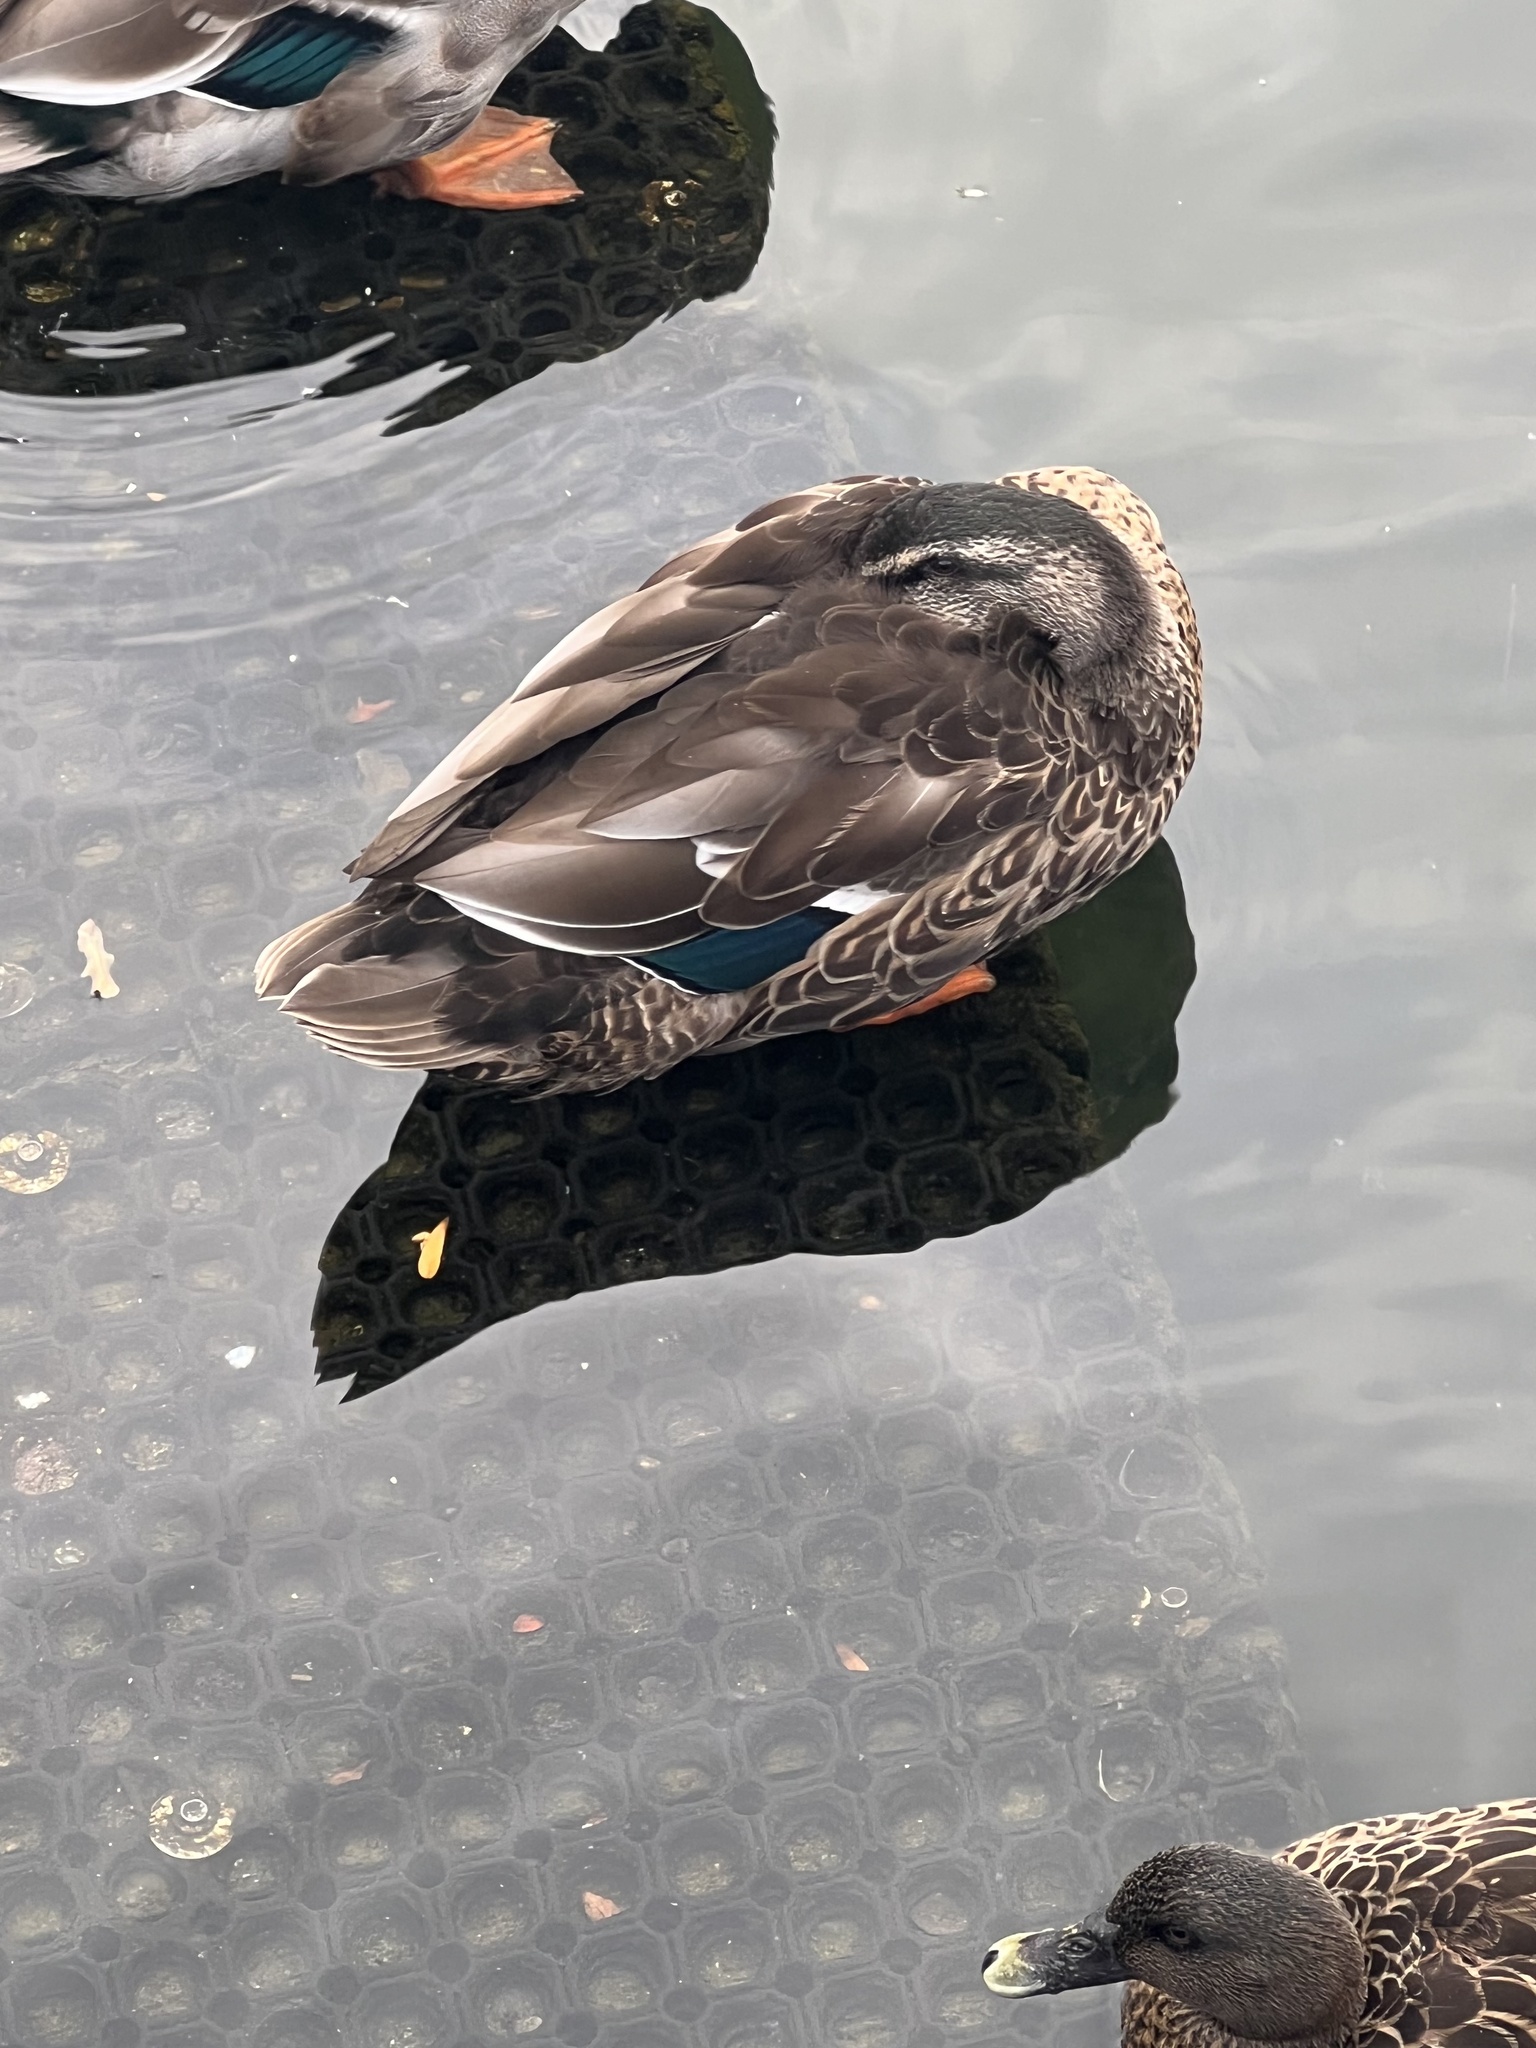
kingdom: Animalia
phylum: Chordata
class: Aves
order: Anseriformes
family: Anatidae
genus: Anas
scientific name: Anas
